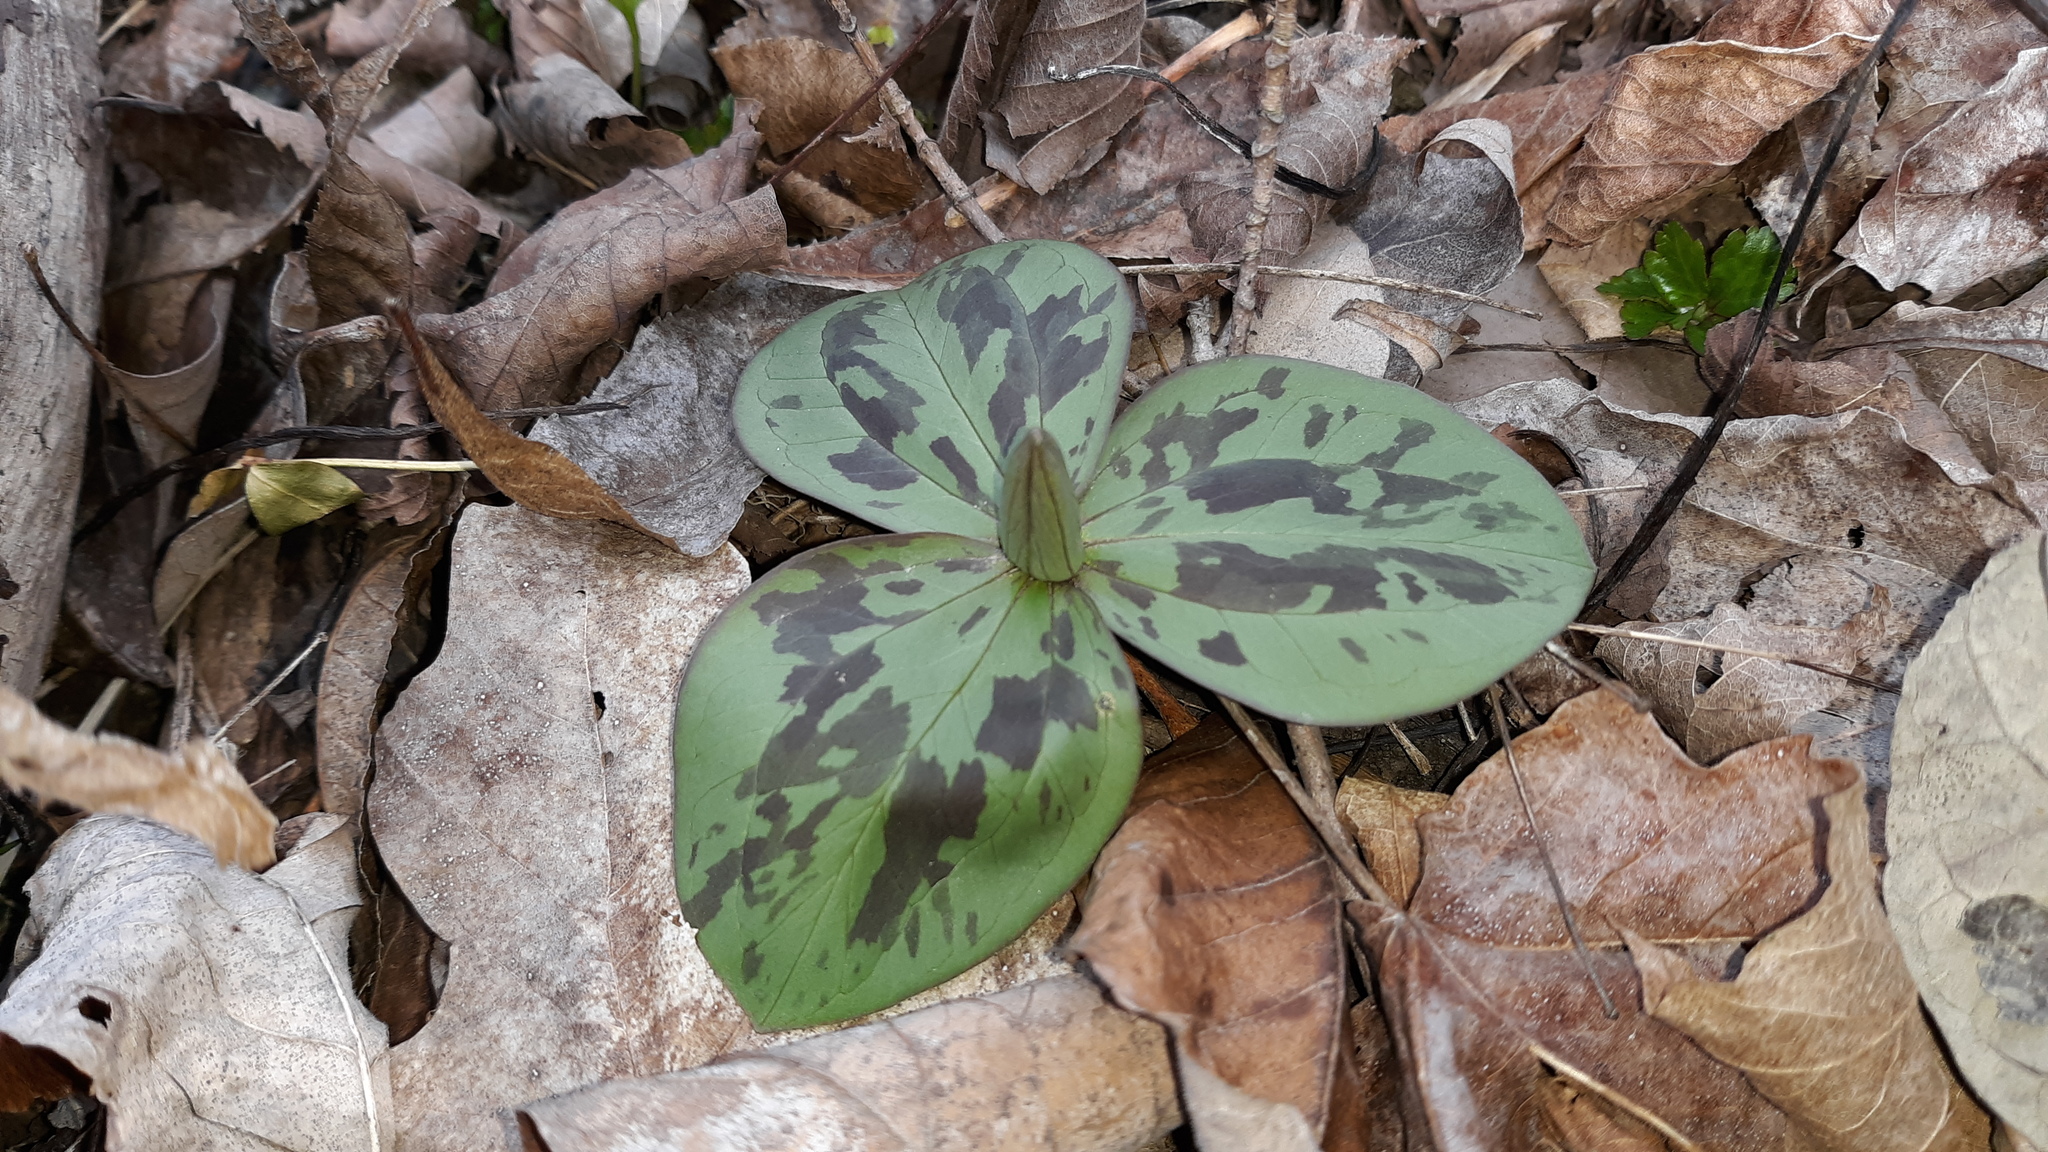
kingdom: Plantae
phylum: Tracheophyta
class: Liliopsida
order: Liliales
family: Melanthiaceae
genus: Trillium
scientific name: Trillium sessile
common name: Sessile trillium
